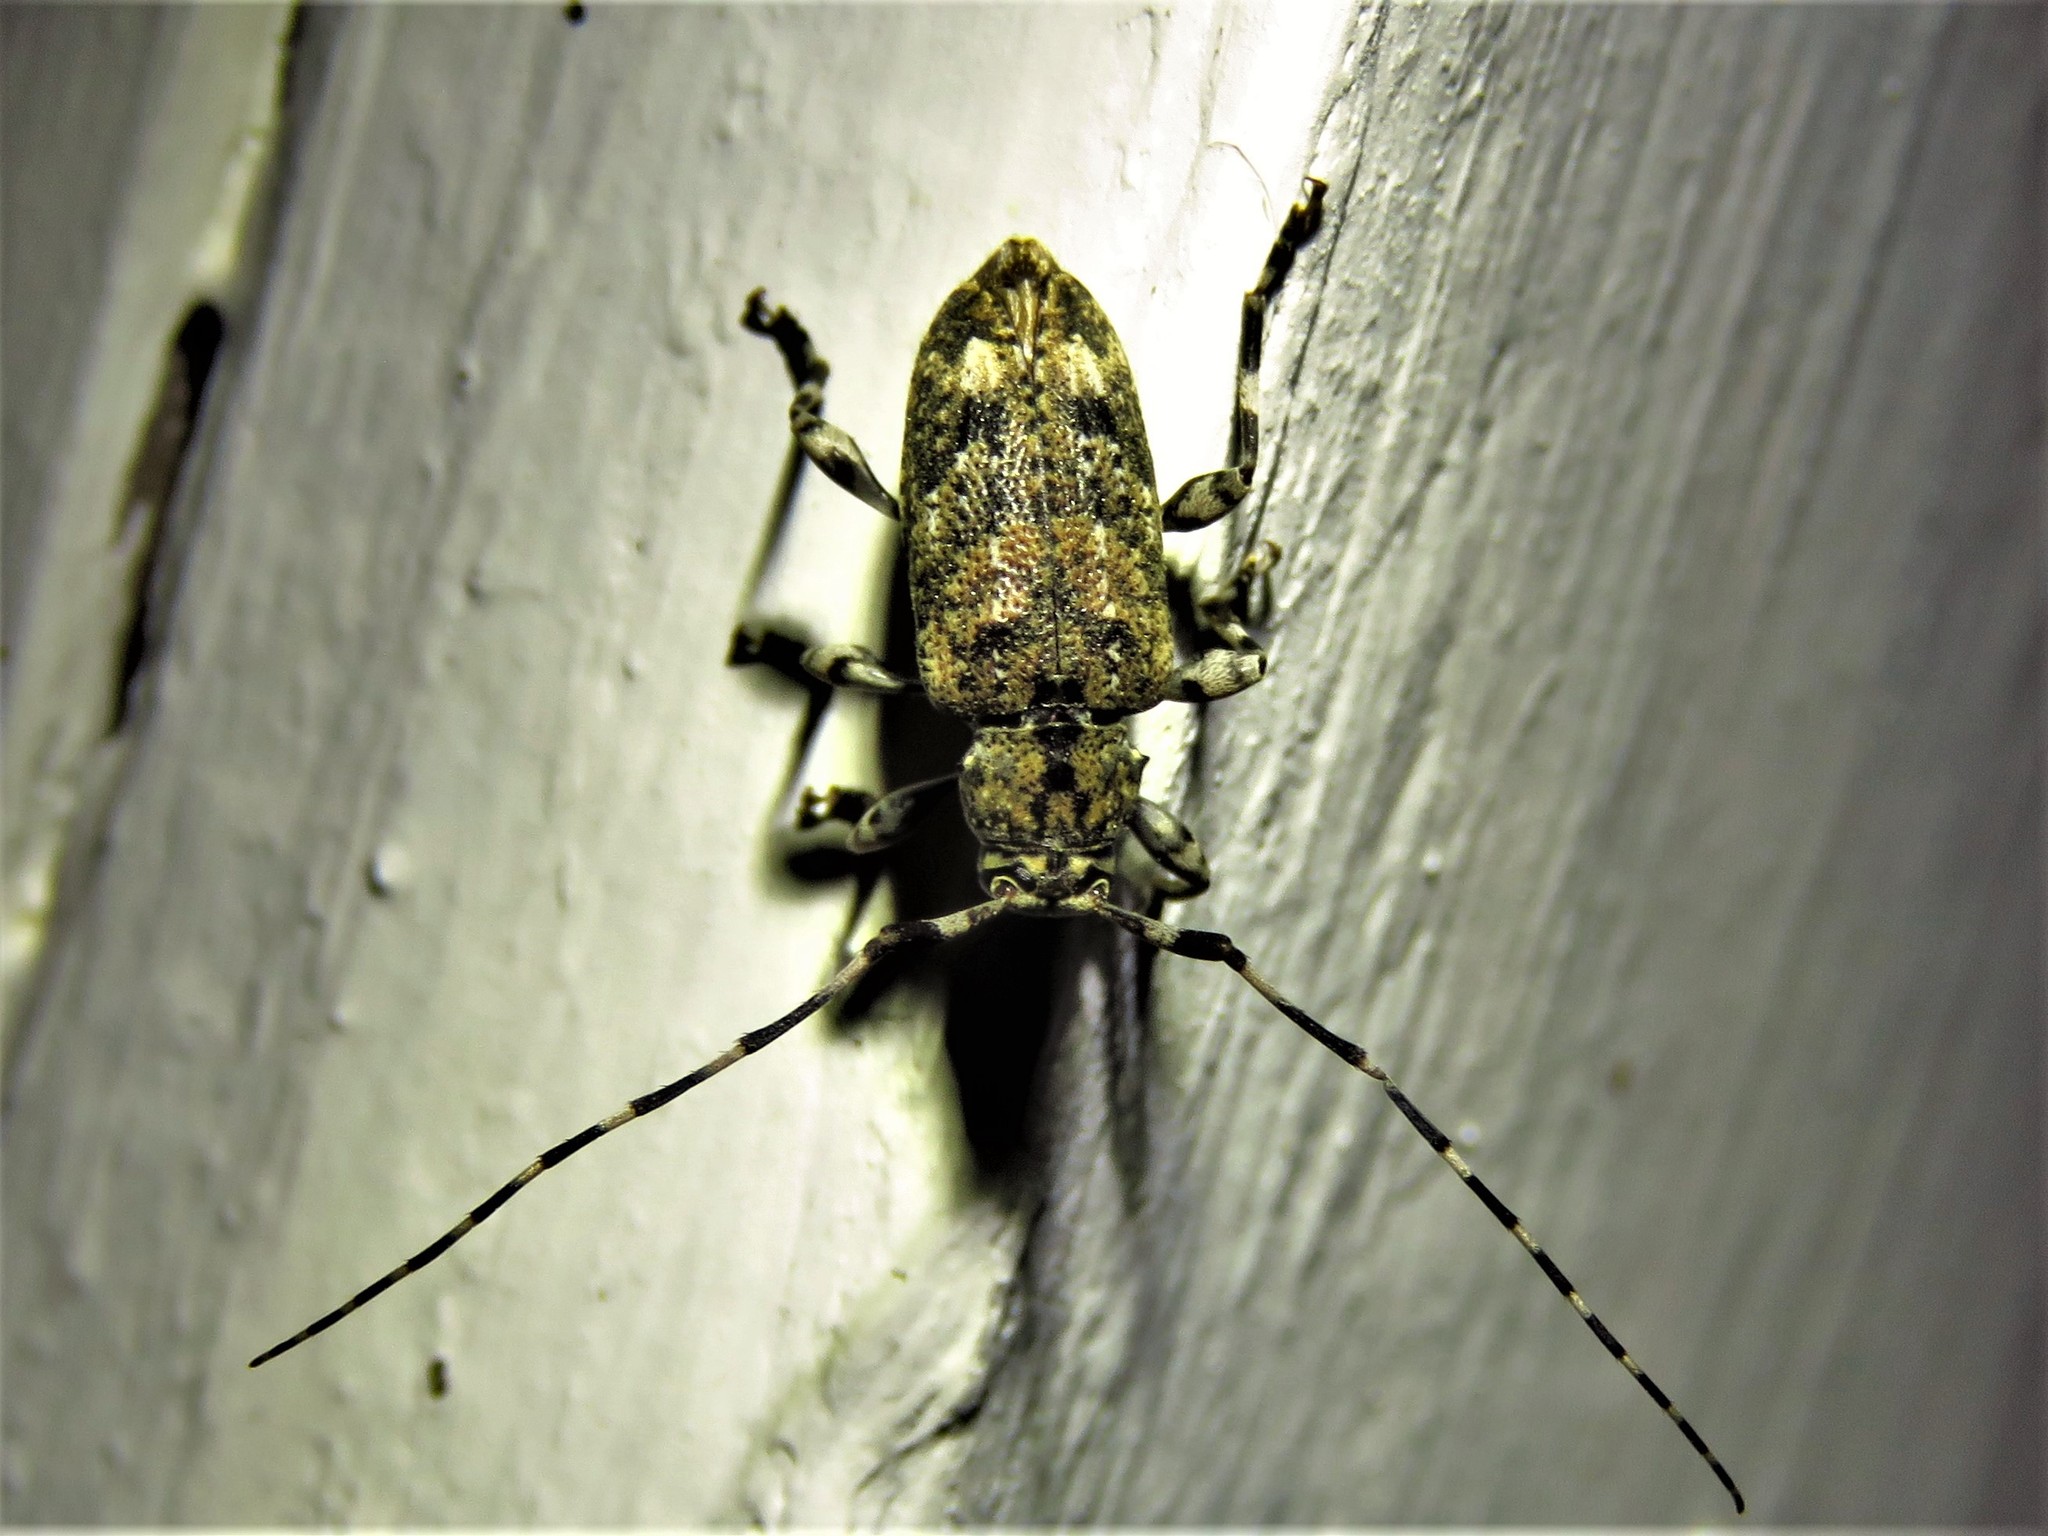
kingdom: Animalia
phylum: Arthropoda
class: Insecta
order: Coleoptera
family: Cerambycidae
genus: Astyleiopus
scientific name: Astyleiopus variegatus
